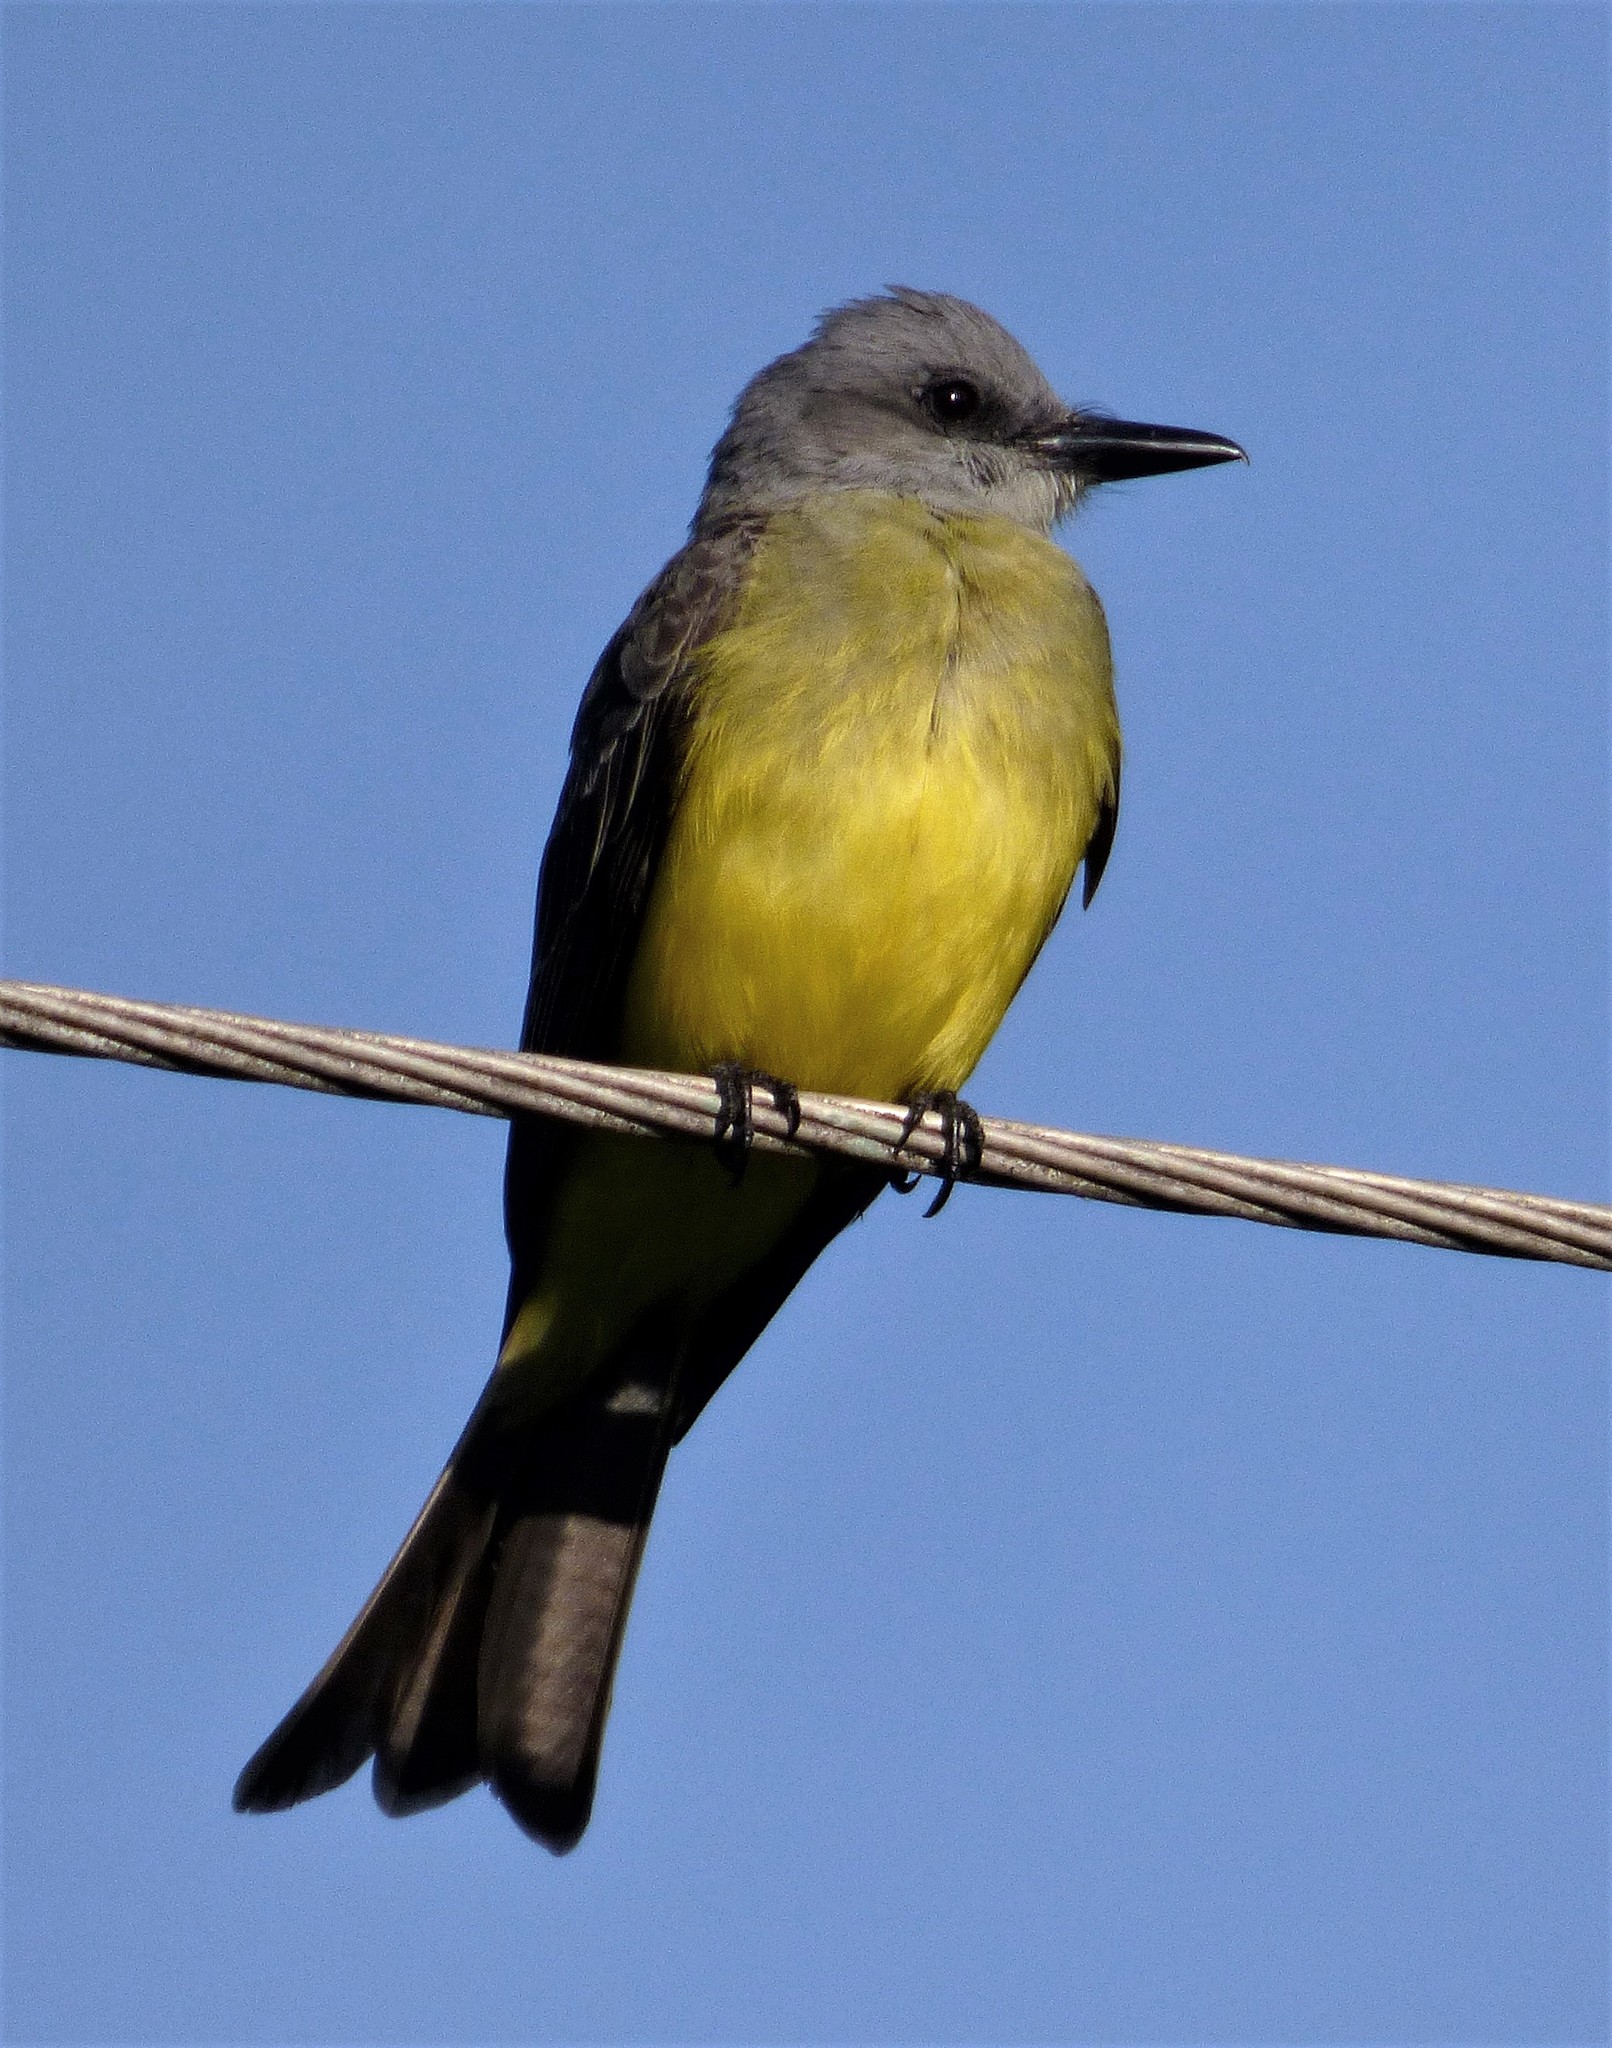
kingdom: Animalia
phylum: Chordata
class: Aves
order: Passeriformes
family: Tyrannidae
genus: Tyrannus
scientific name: Tyrannus melancholicus
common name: Tropical kingbird
